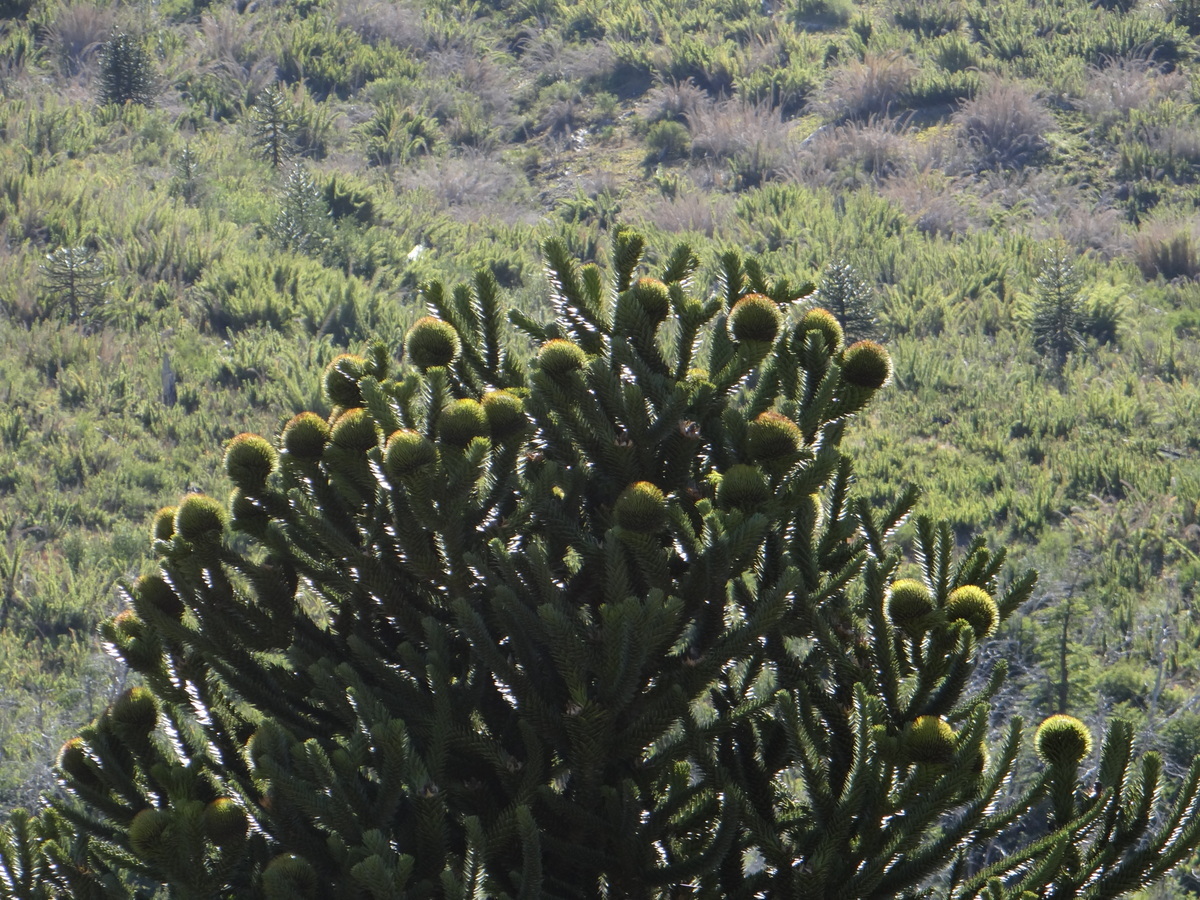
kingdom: Plantae
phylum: Tracheophyta
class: Pinopsida
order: Pinales
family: Araucariaceae
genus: Araucaria
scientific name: Araucaria araucana
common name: Monkey-puzzle
